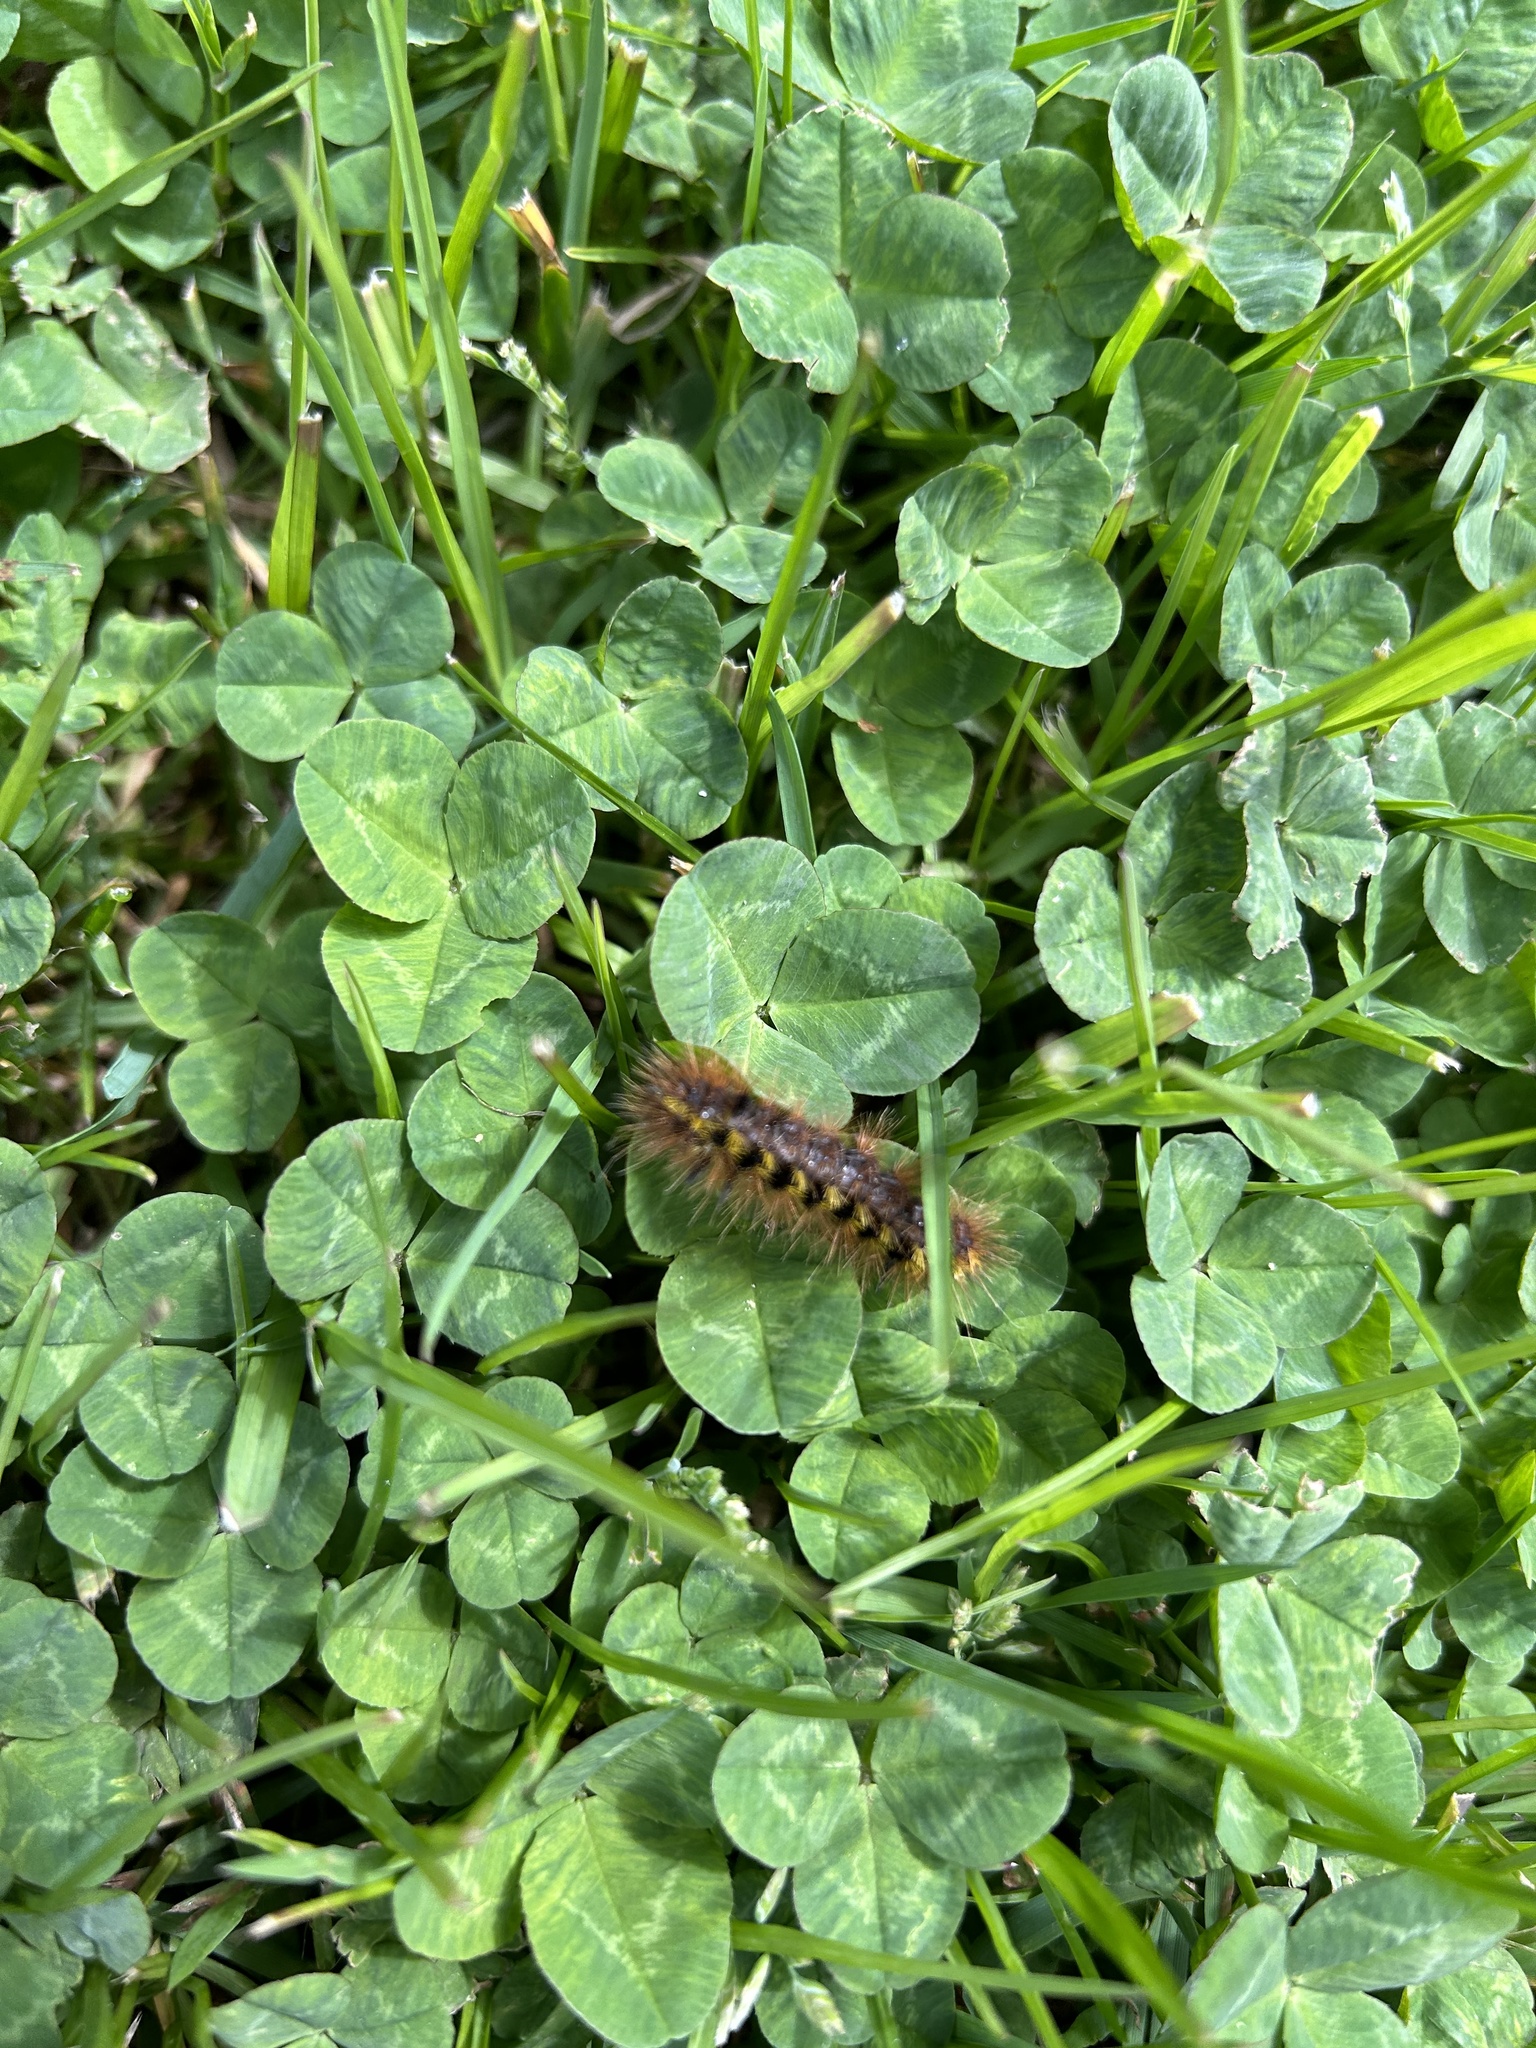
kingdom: Animalia
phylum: Arthropoda
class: Insecta
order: Lepidoptera
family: Erebidae
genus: Lophocampa
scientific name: Lophocampa argentata
